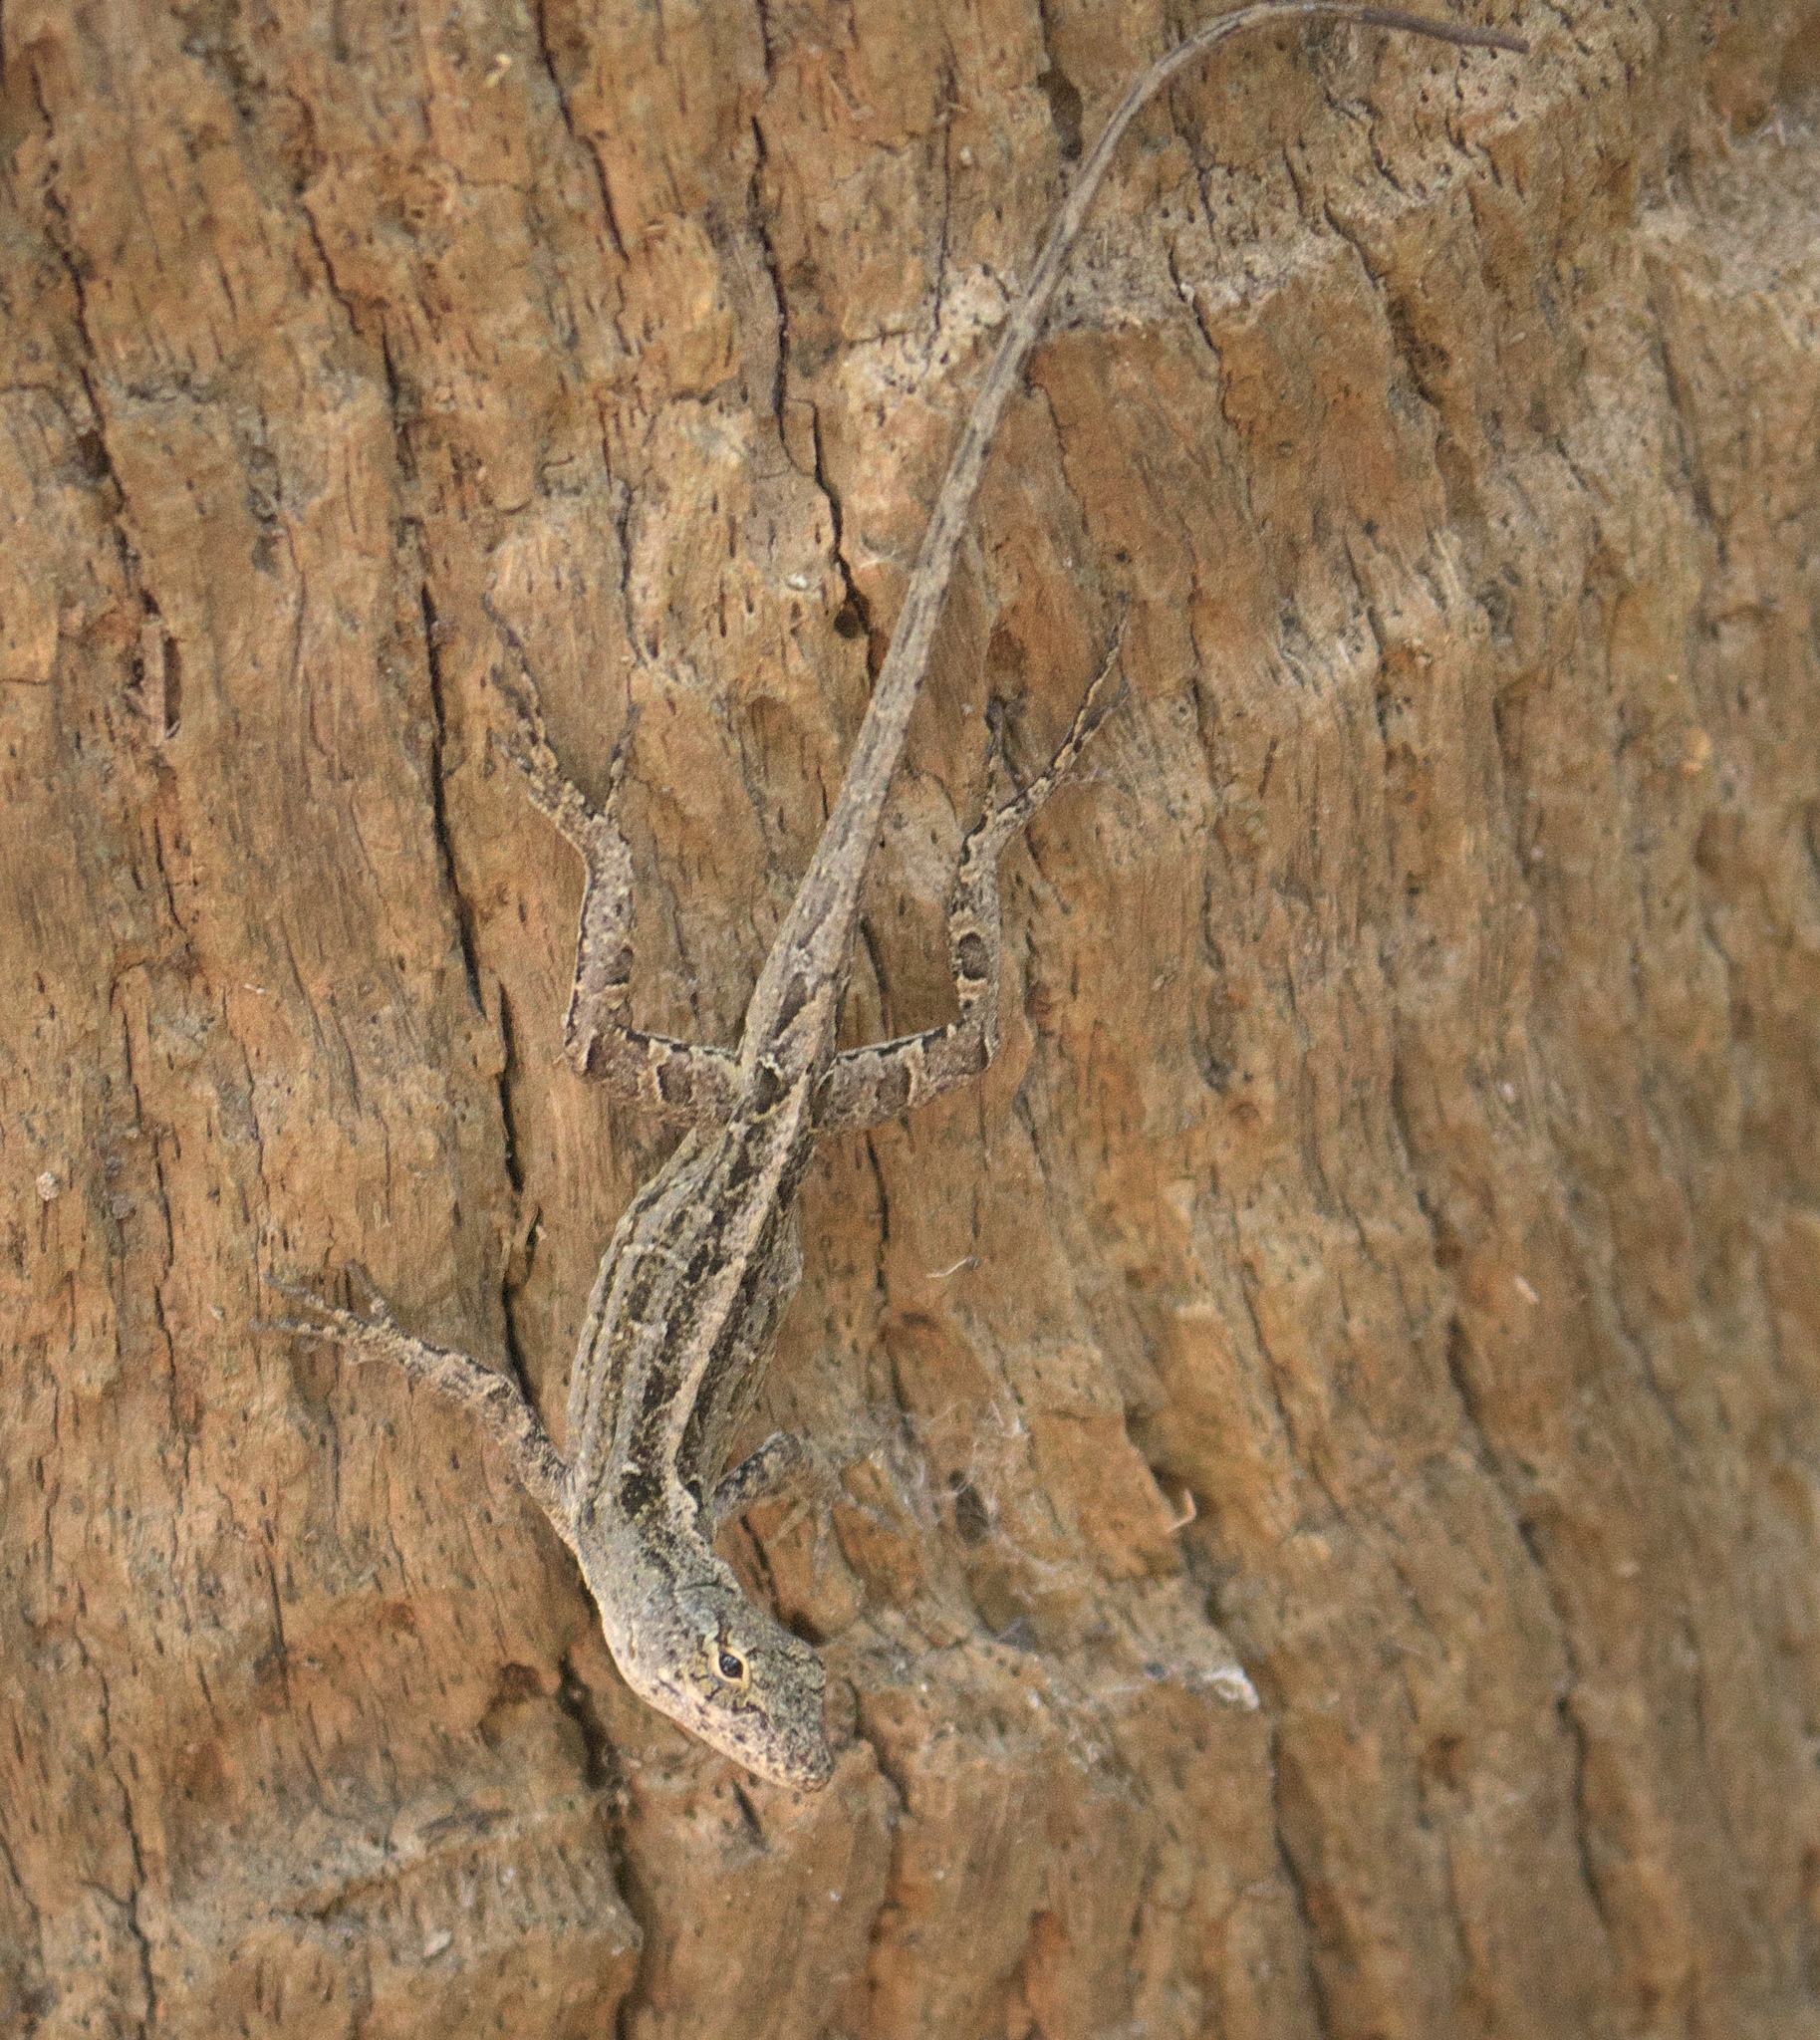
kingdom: Animalia
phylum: Chordata
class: Squamata
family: Dactyloidae
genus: Anolis
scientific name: Anolis sagrei
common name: Brown anole
